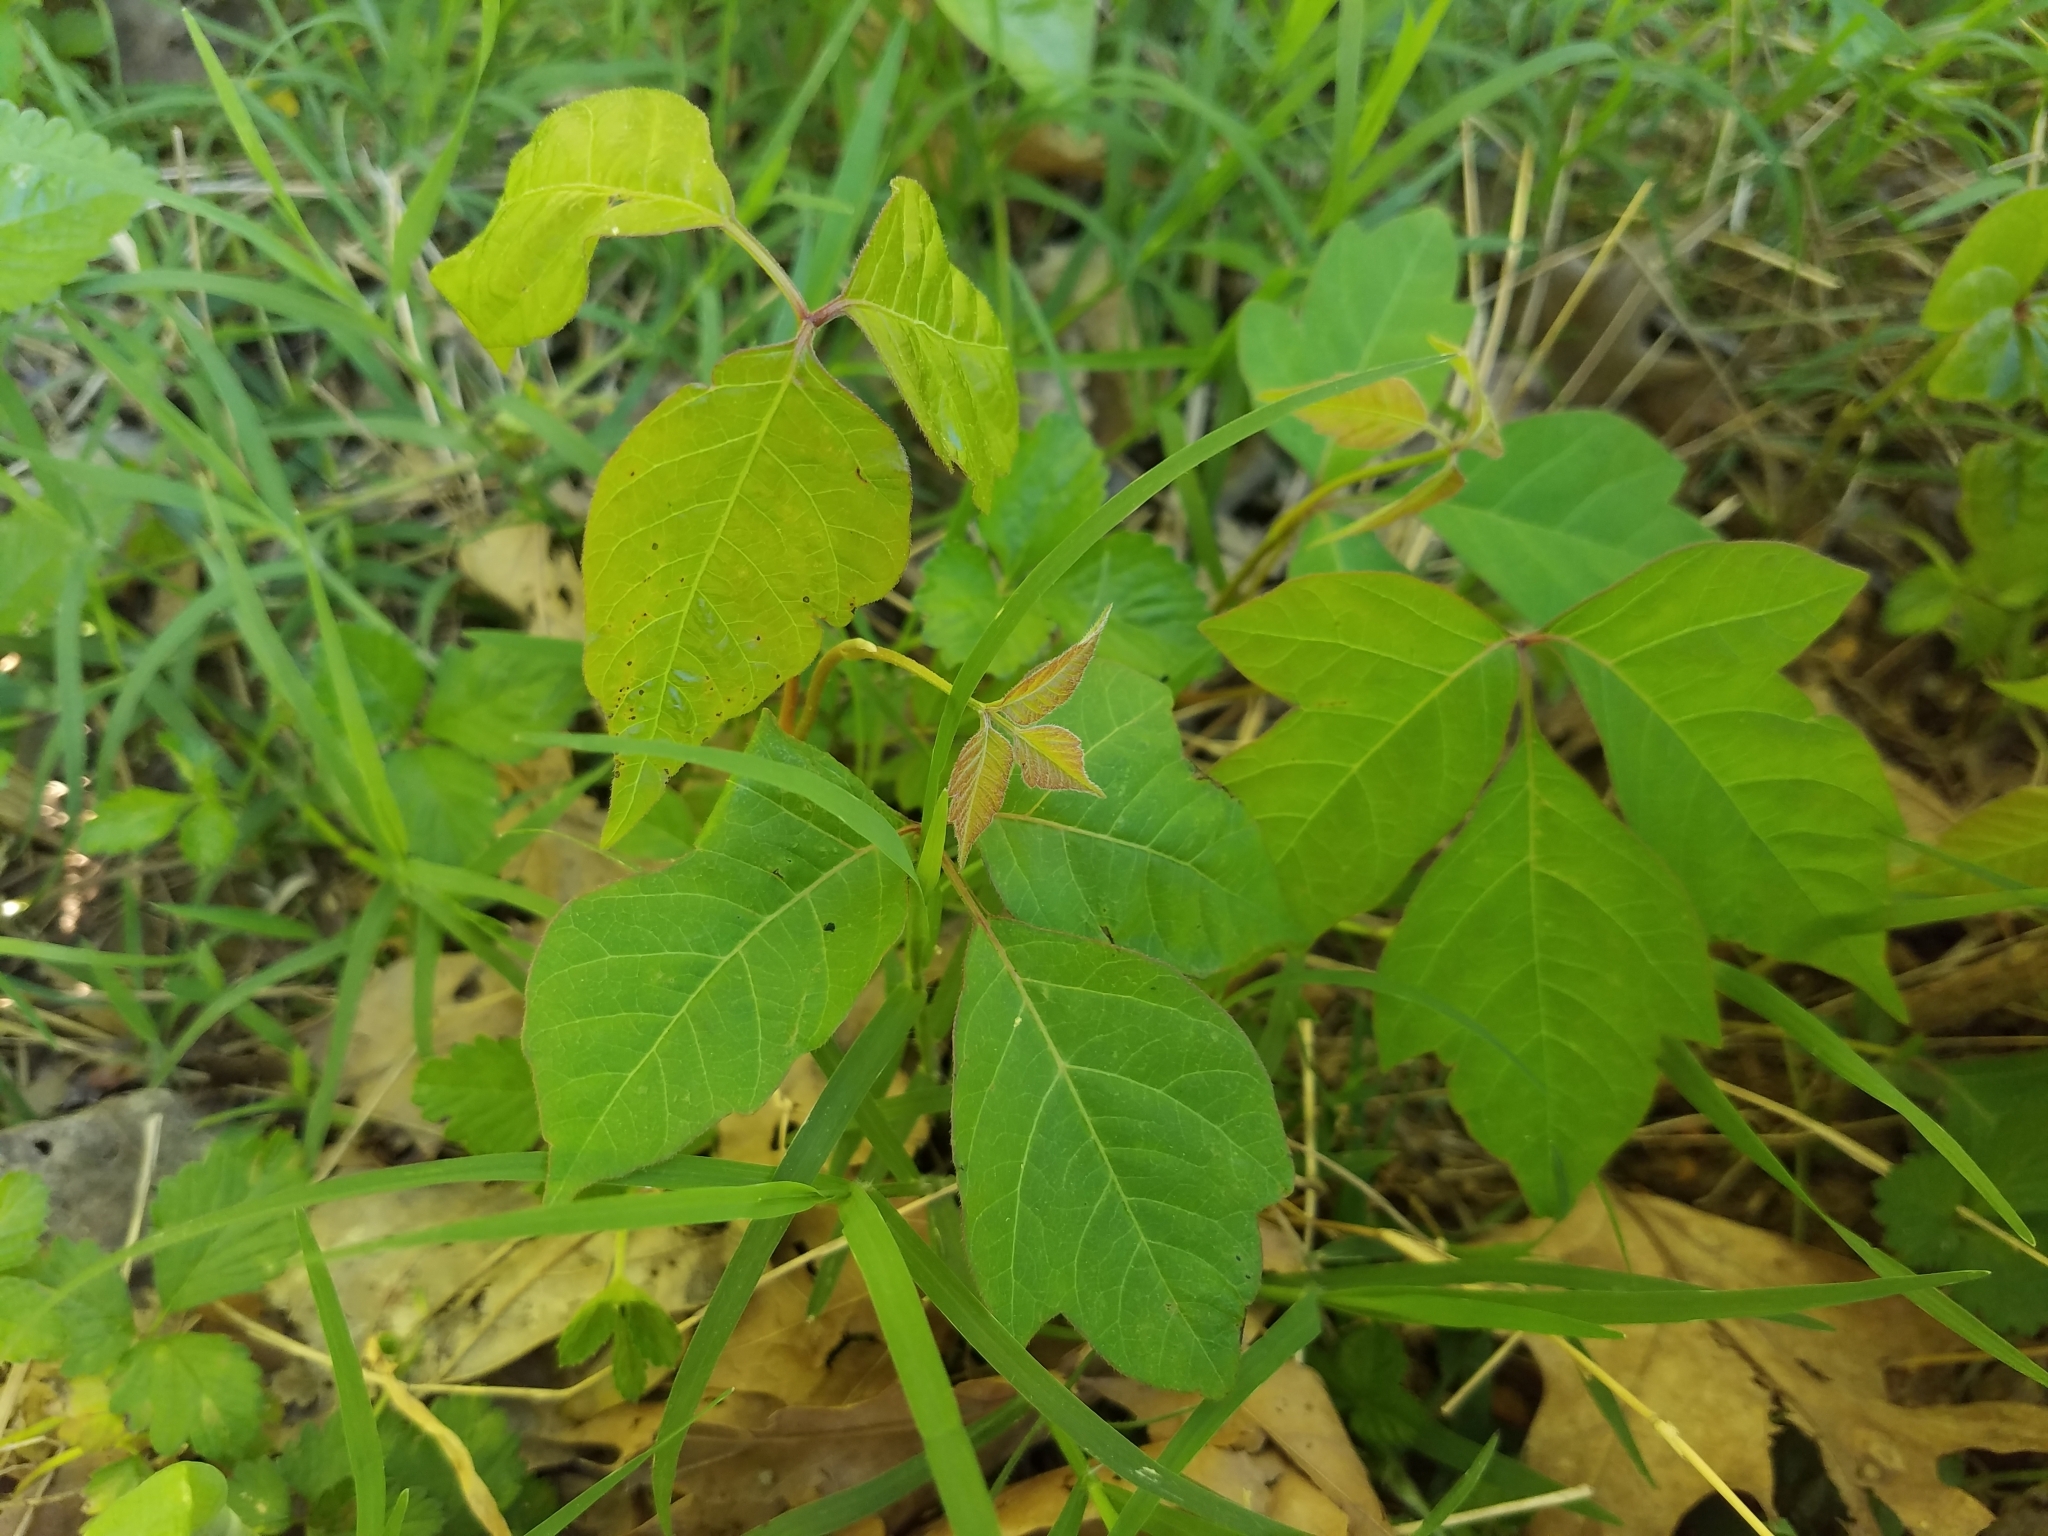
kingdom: Plantae
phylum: Tracheophyta
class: Magnoliopsida
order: Sapindales
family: Anacardiaceae
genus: Toxicodendron
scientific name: Toxicodendron radicans
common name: Poison ivy
